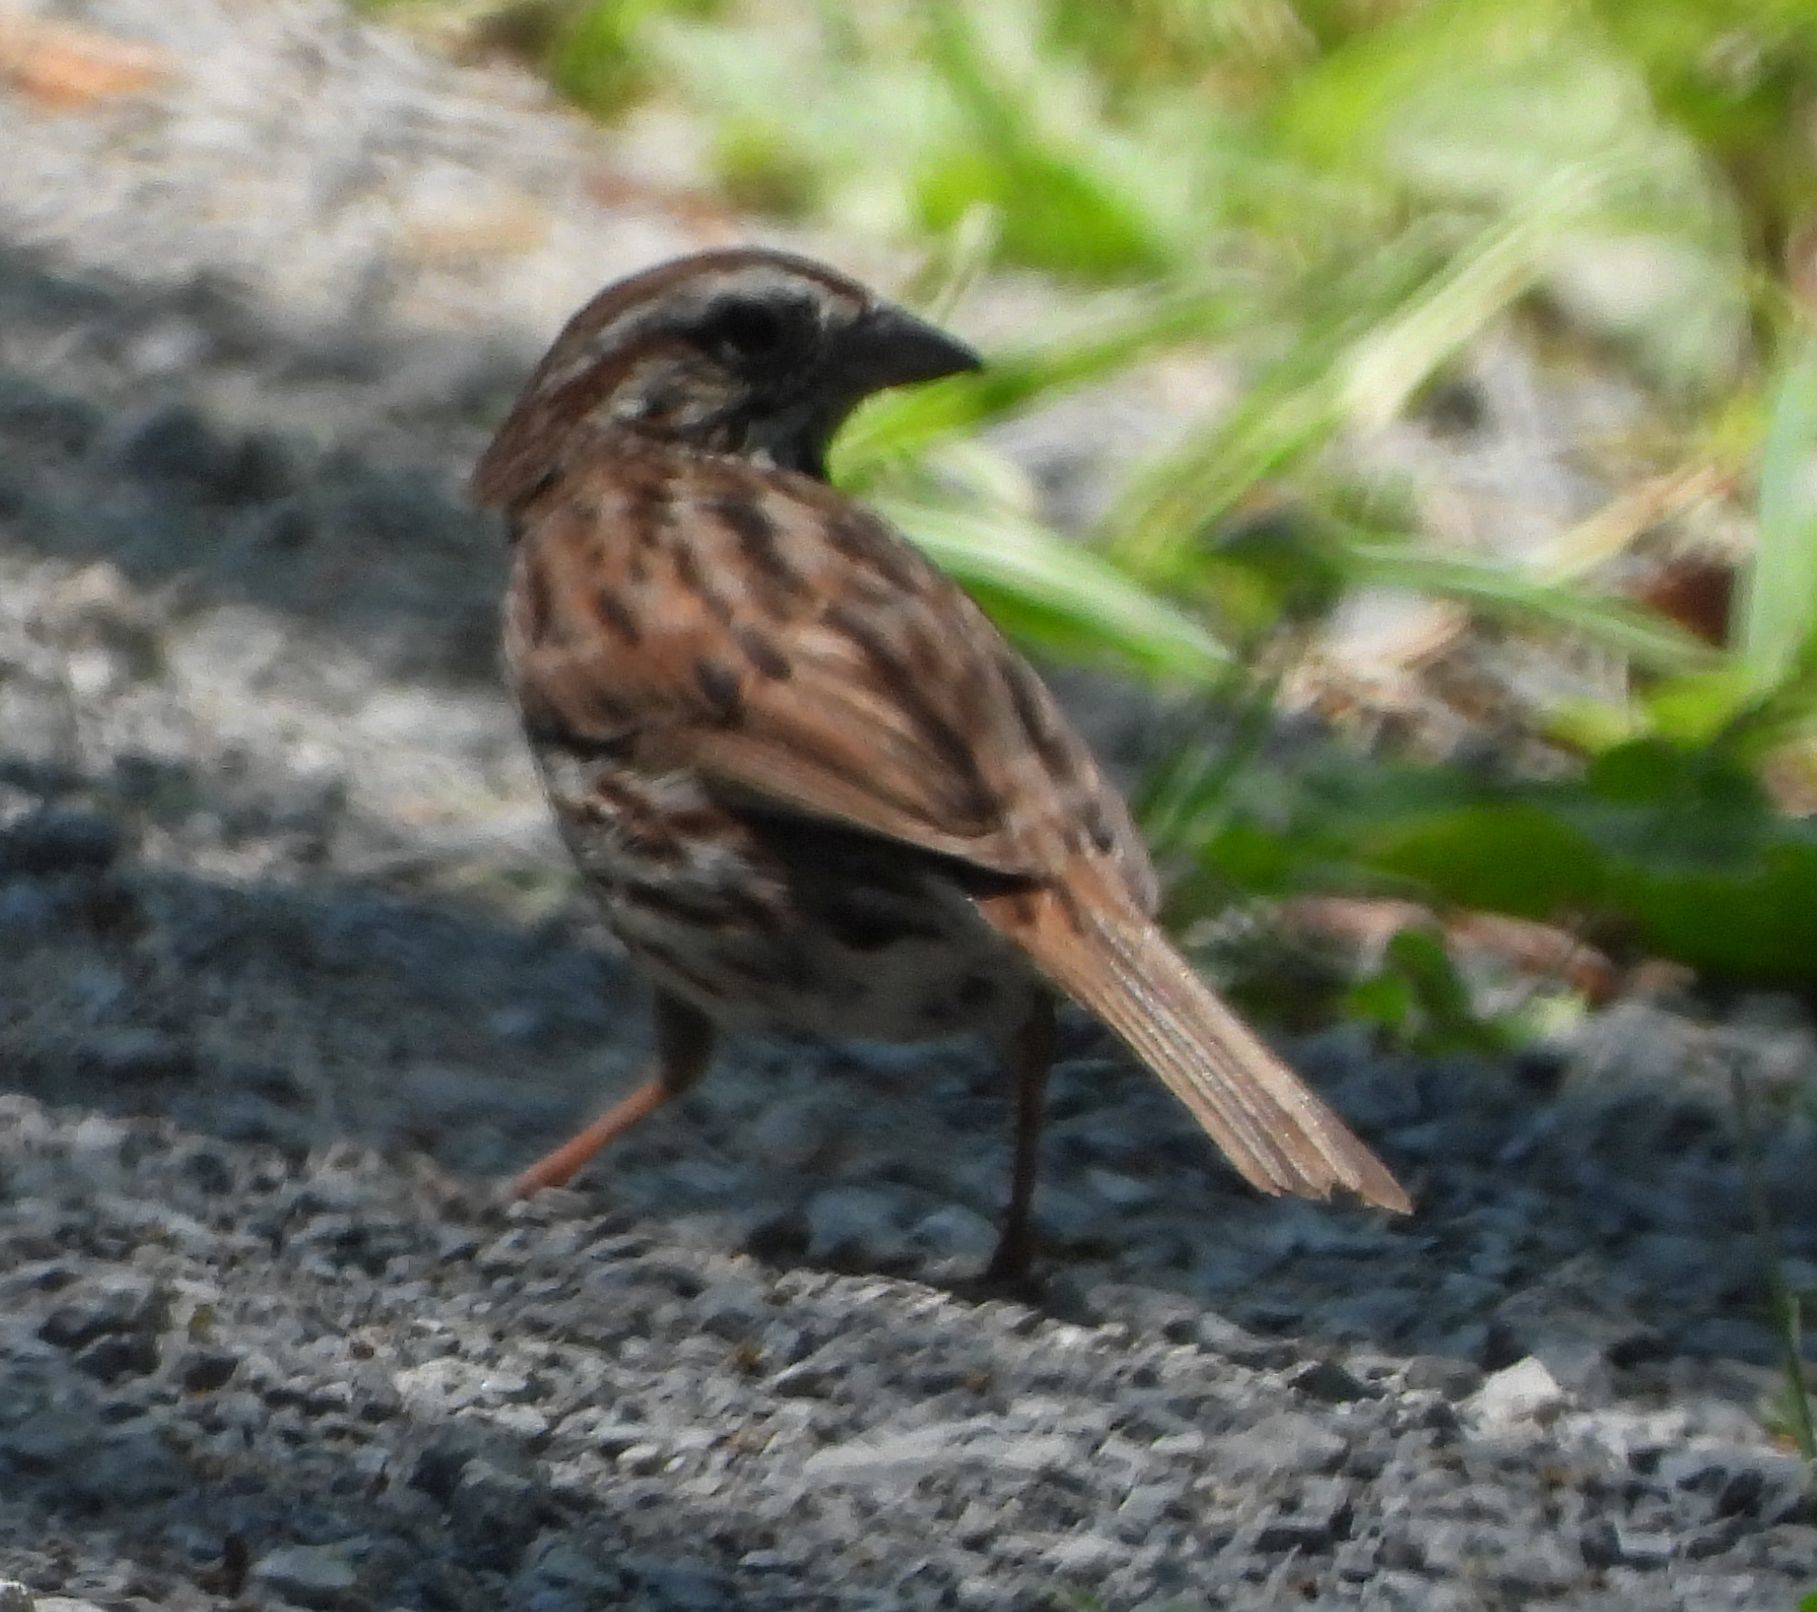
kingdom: Animalia
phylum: Chordata
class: Aves
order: Passeriformes
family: Passerellidae
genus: Melospiza
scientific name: Melospiza melodia
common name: Song sparrow
